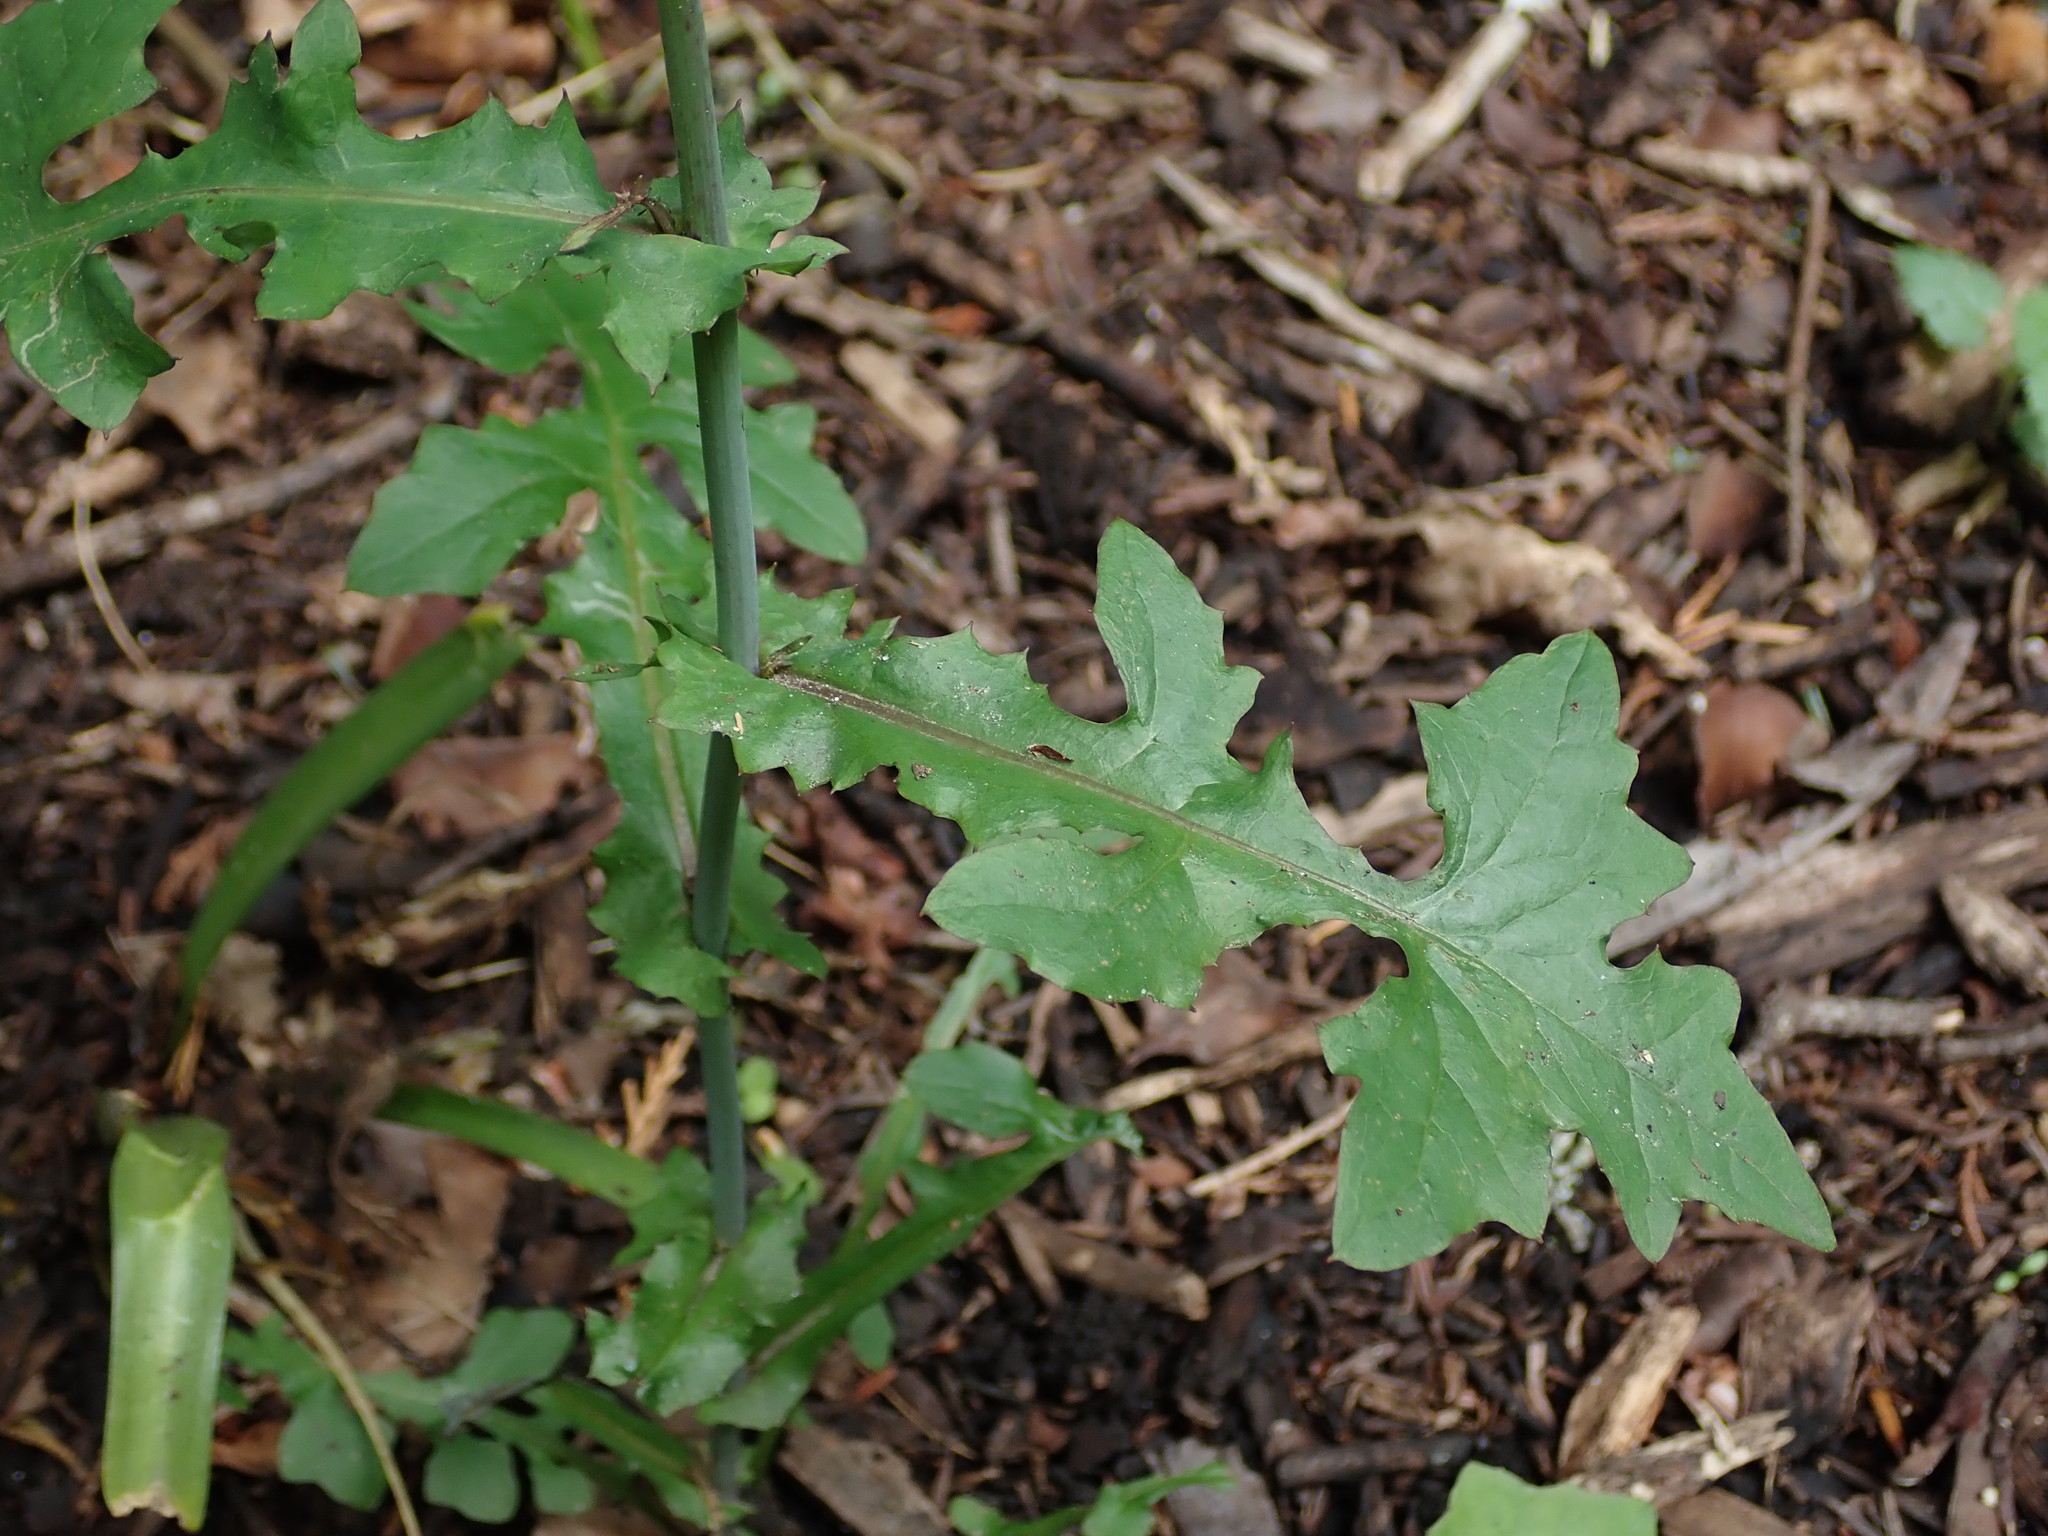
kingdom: Plantae
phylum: Tracheophyta
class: Magnoliopsida
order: Asterales
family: Asteraceae
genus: Mycelis
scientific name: Mycelis muralis
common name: Wall lettuce
